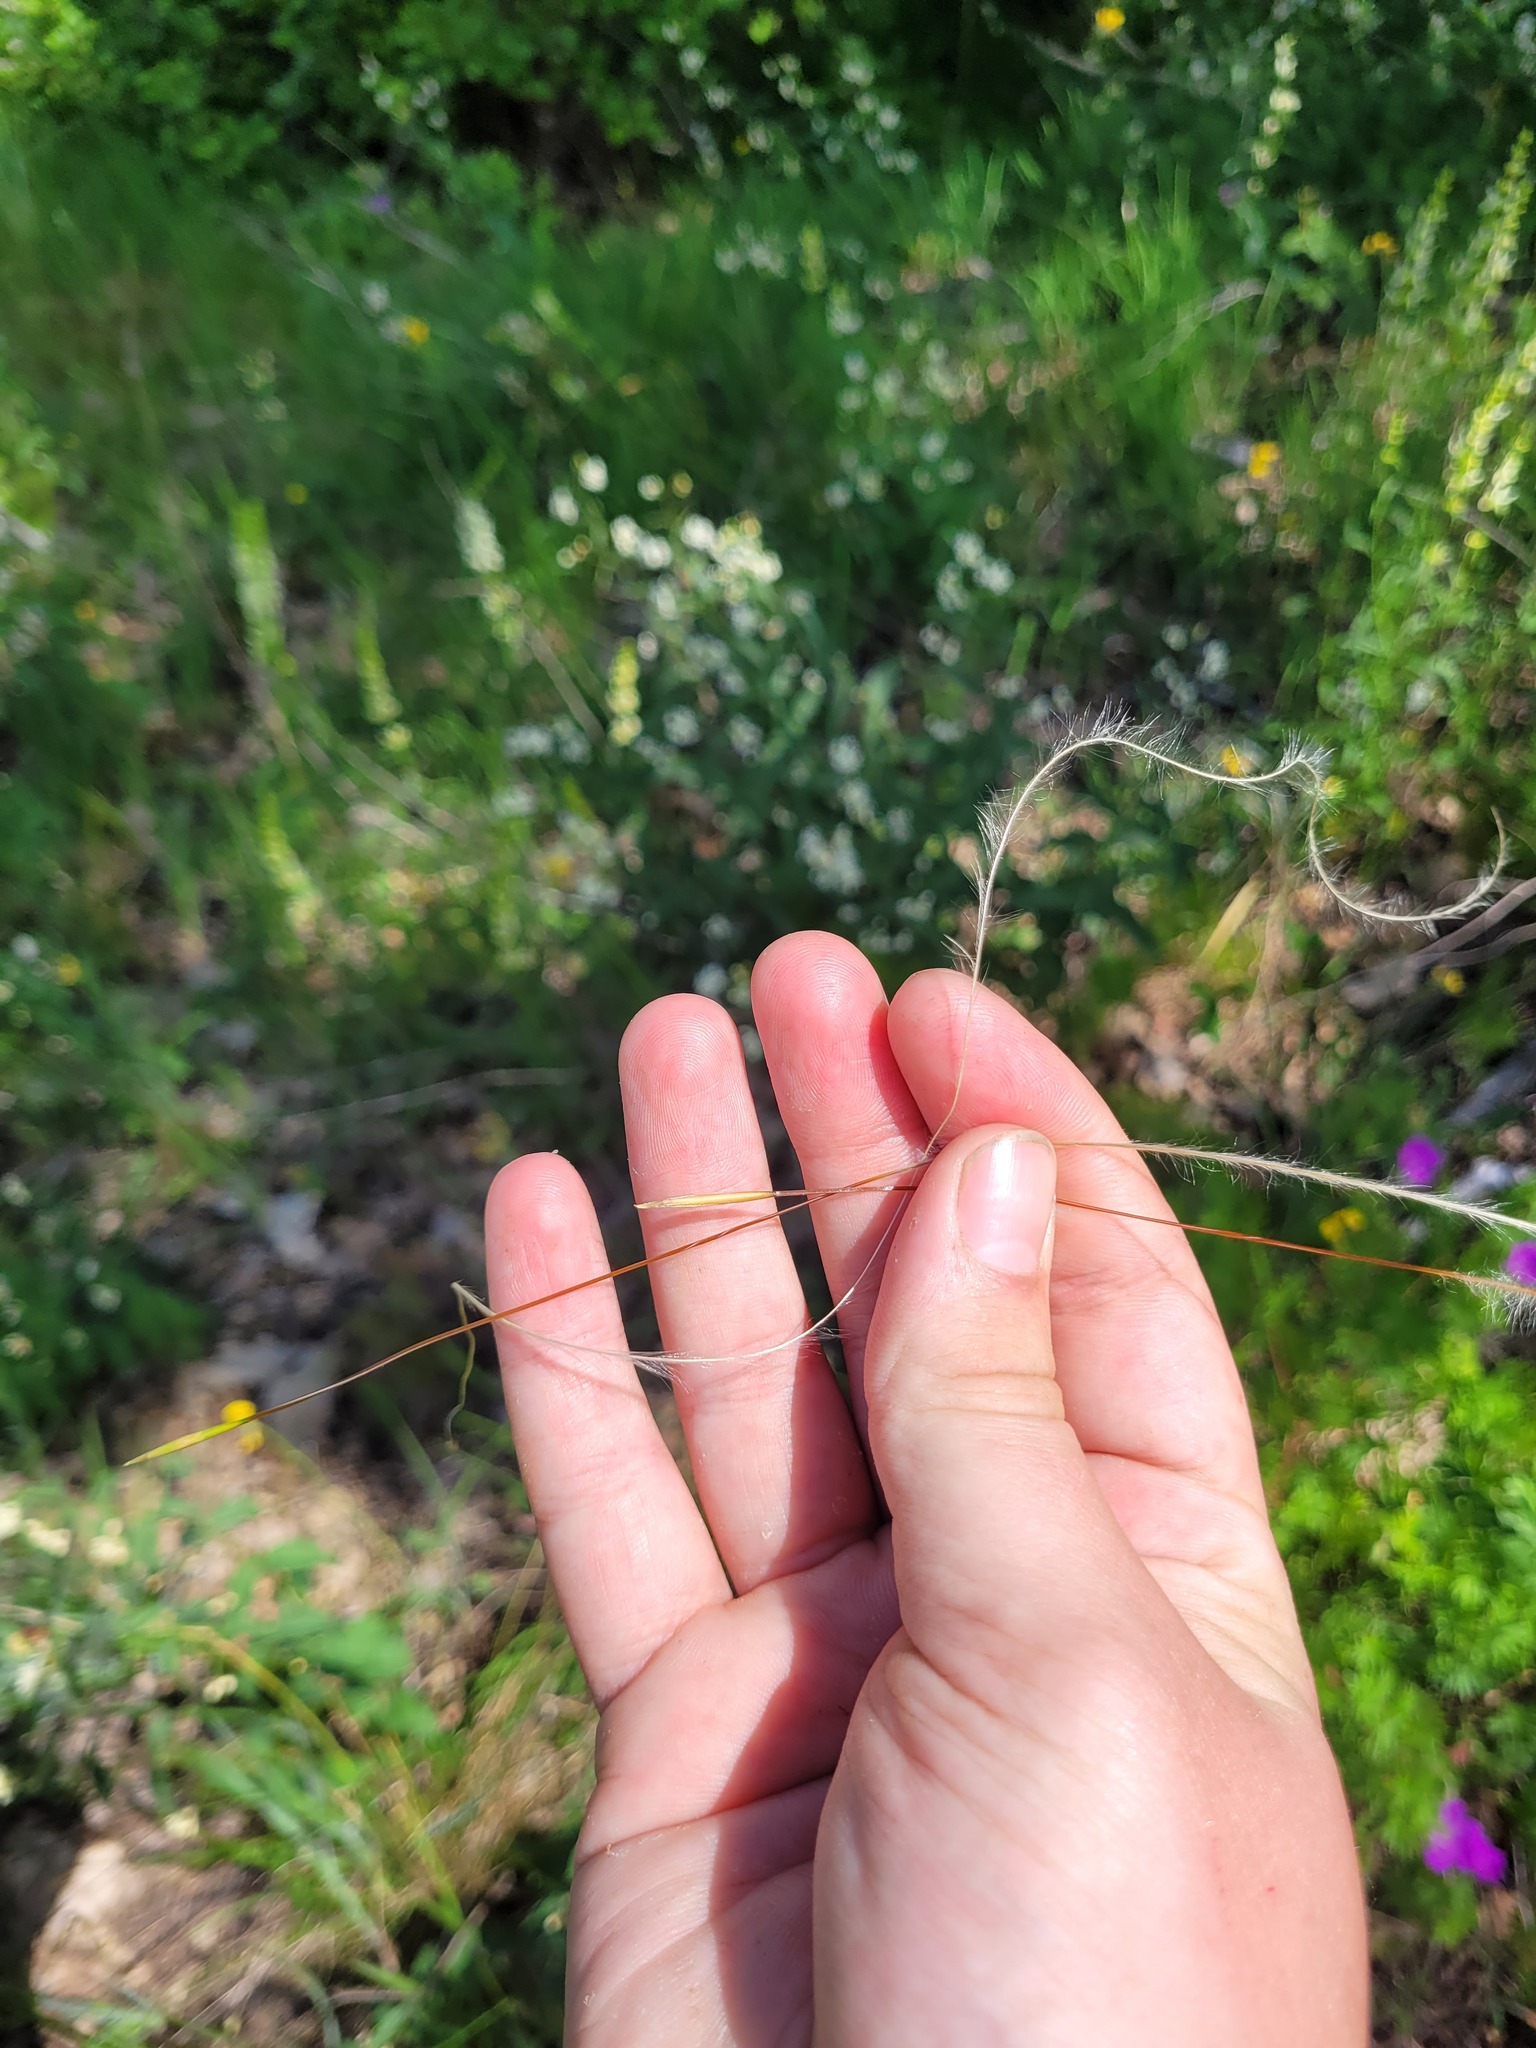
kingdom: Plantae
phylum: Tracheophyta
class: Liliopsida
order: Poales
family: Poaceae
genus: Stipa
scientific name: Stipa pennata
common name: European feather grass
